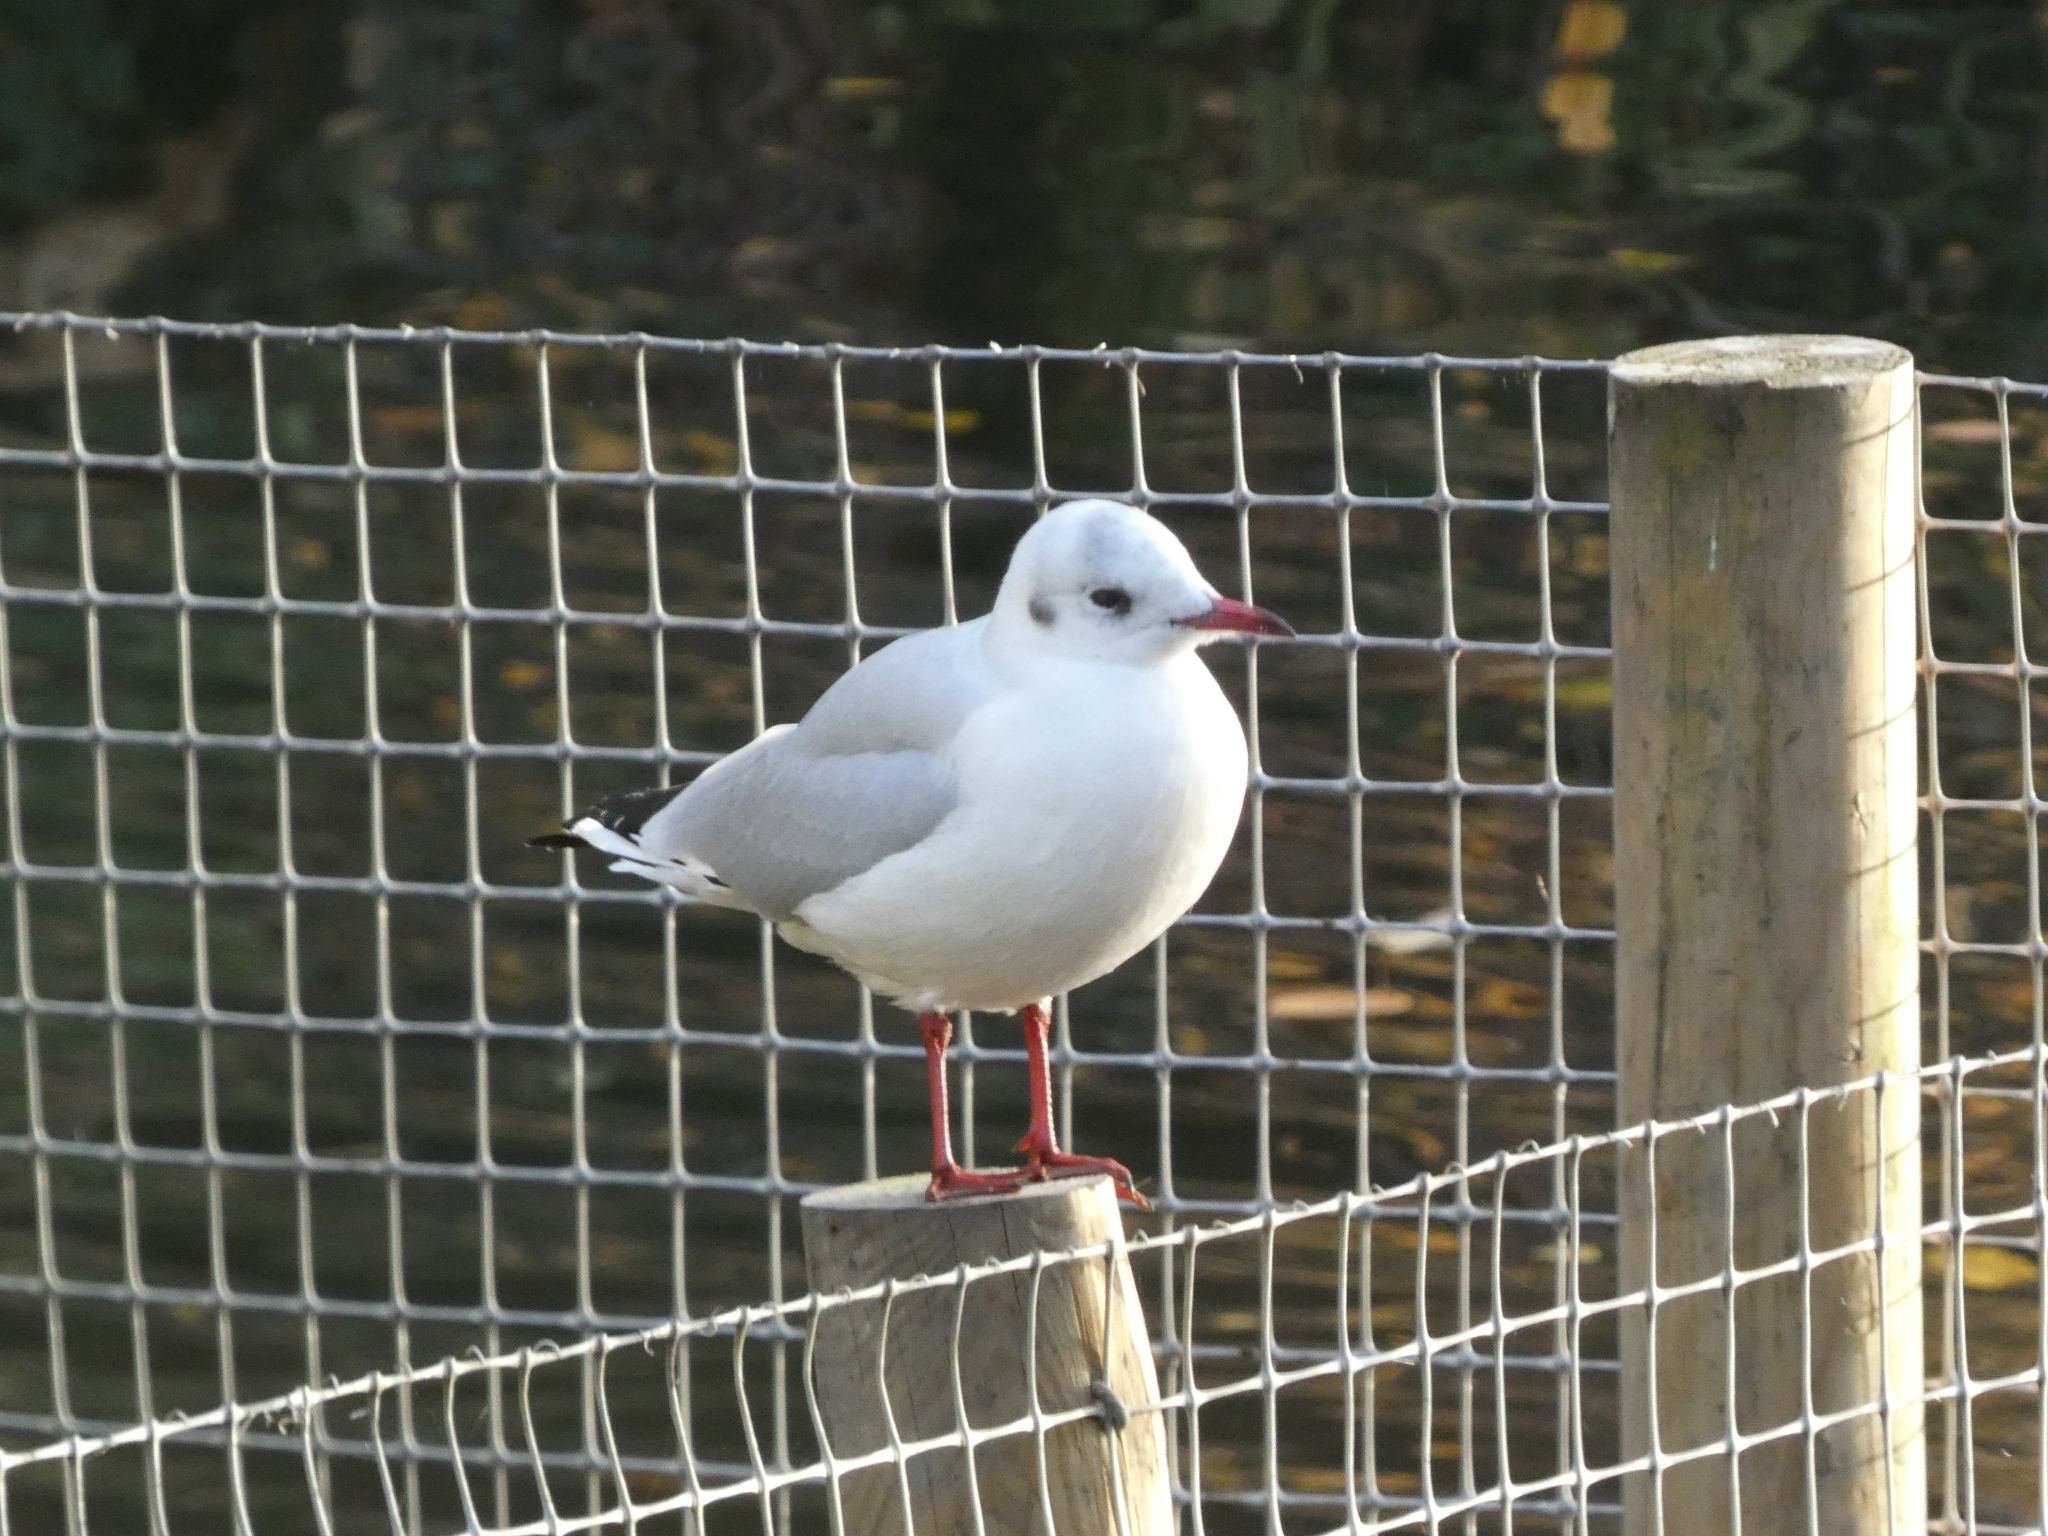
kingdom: Animalia
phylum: Chordata
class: Aves
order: Charadriiformes
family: Laridae
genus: Chroicocephalus
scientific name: Chroicocephalus ridibundus
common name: Black-headed gull
